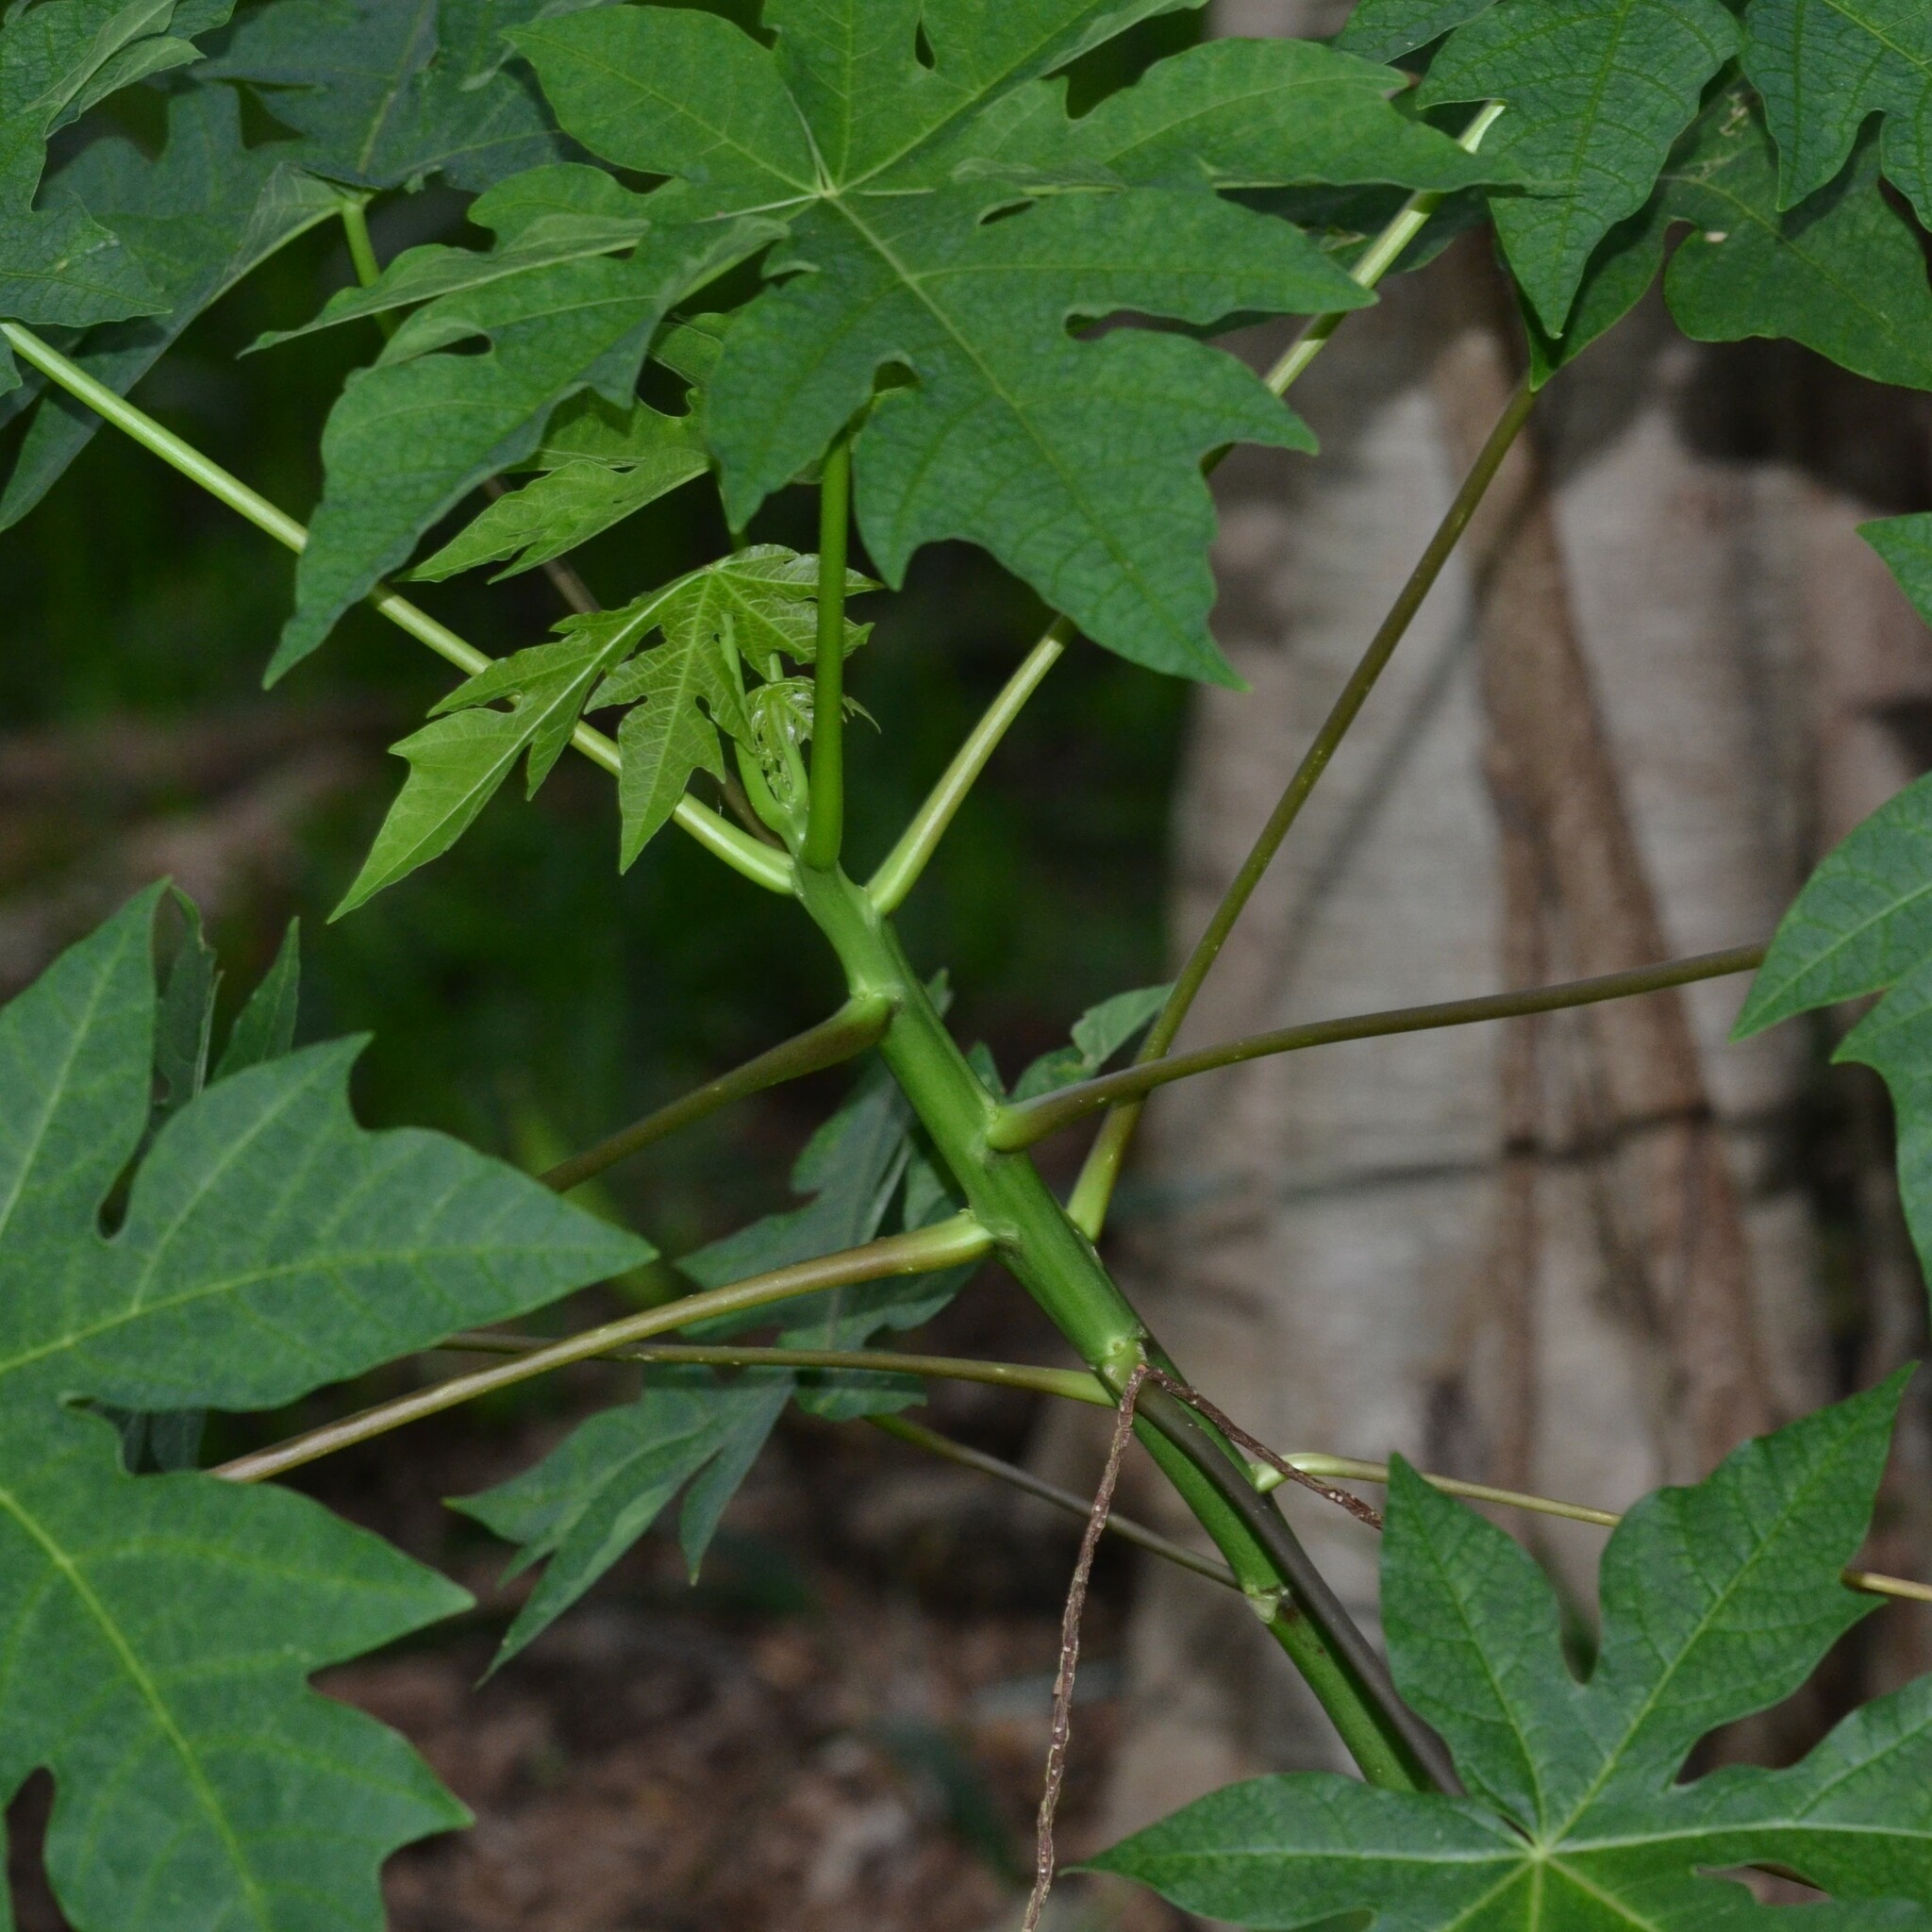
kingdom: Plantae
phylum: Tracheophyta
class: Magnoliopsida
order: Brassicales
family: Caricaceae
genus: Carica
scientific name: Carica papaya
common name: Papaya
